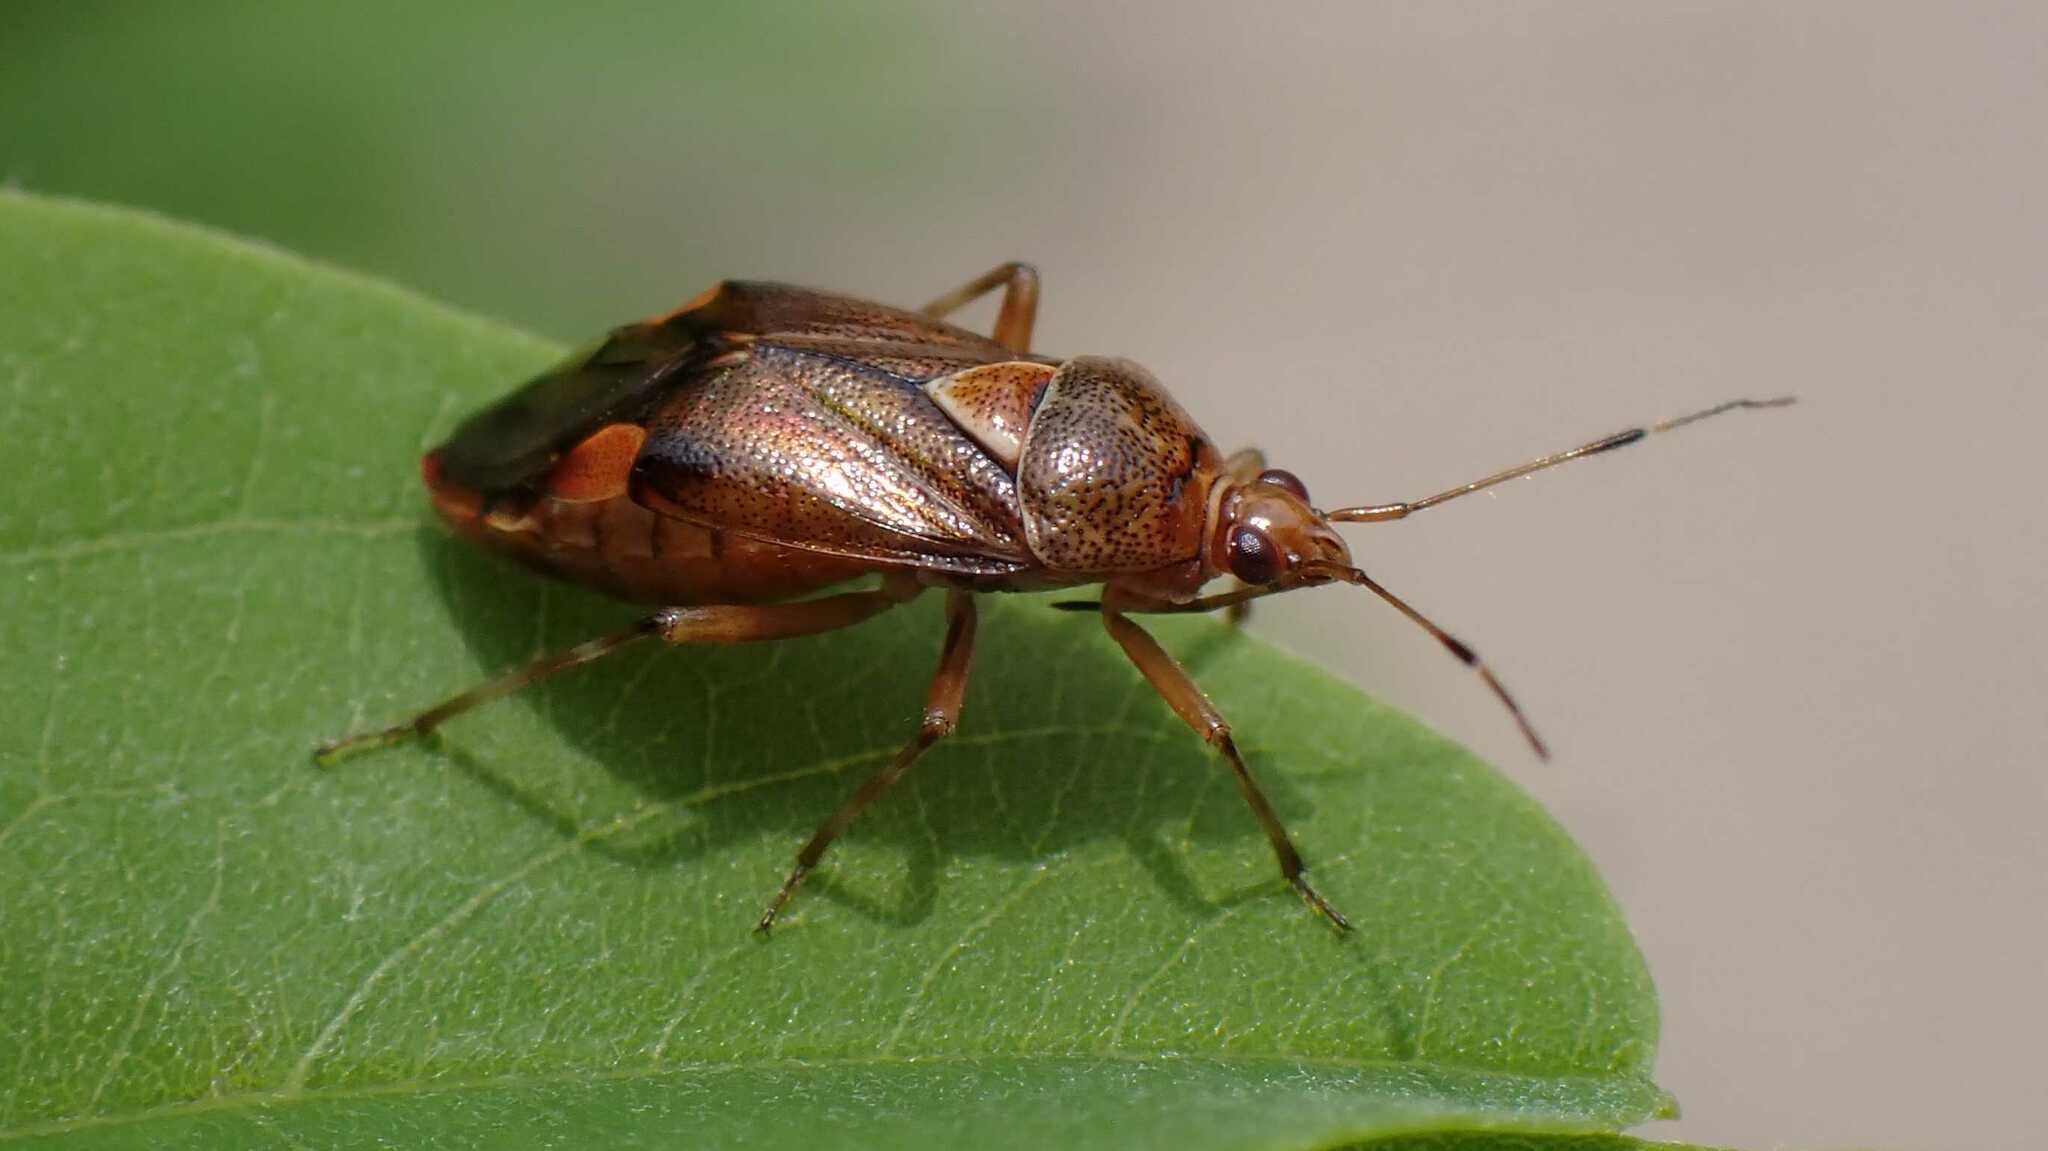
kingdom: Animalia
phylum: Arthropoda
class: Insecta
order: Hemiptera
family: Miridae
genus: Deraeocoris
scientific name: Deraeocoris flavilinea
